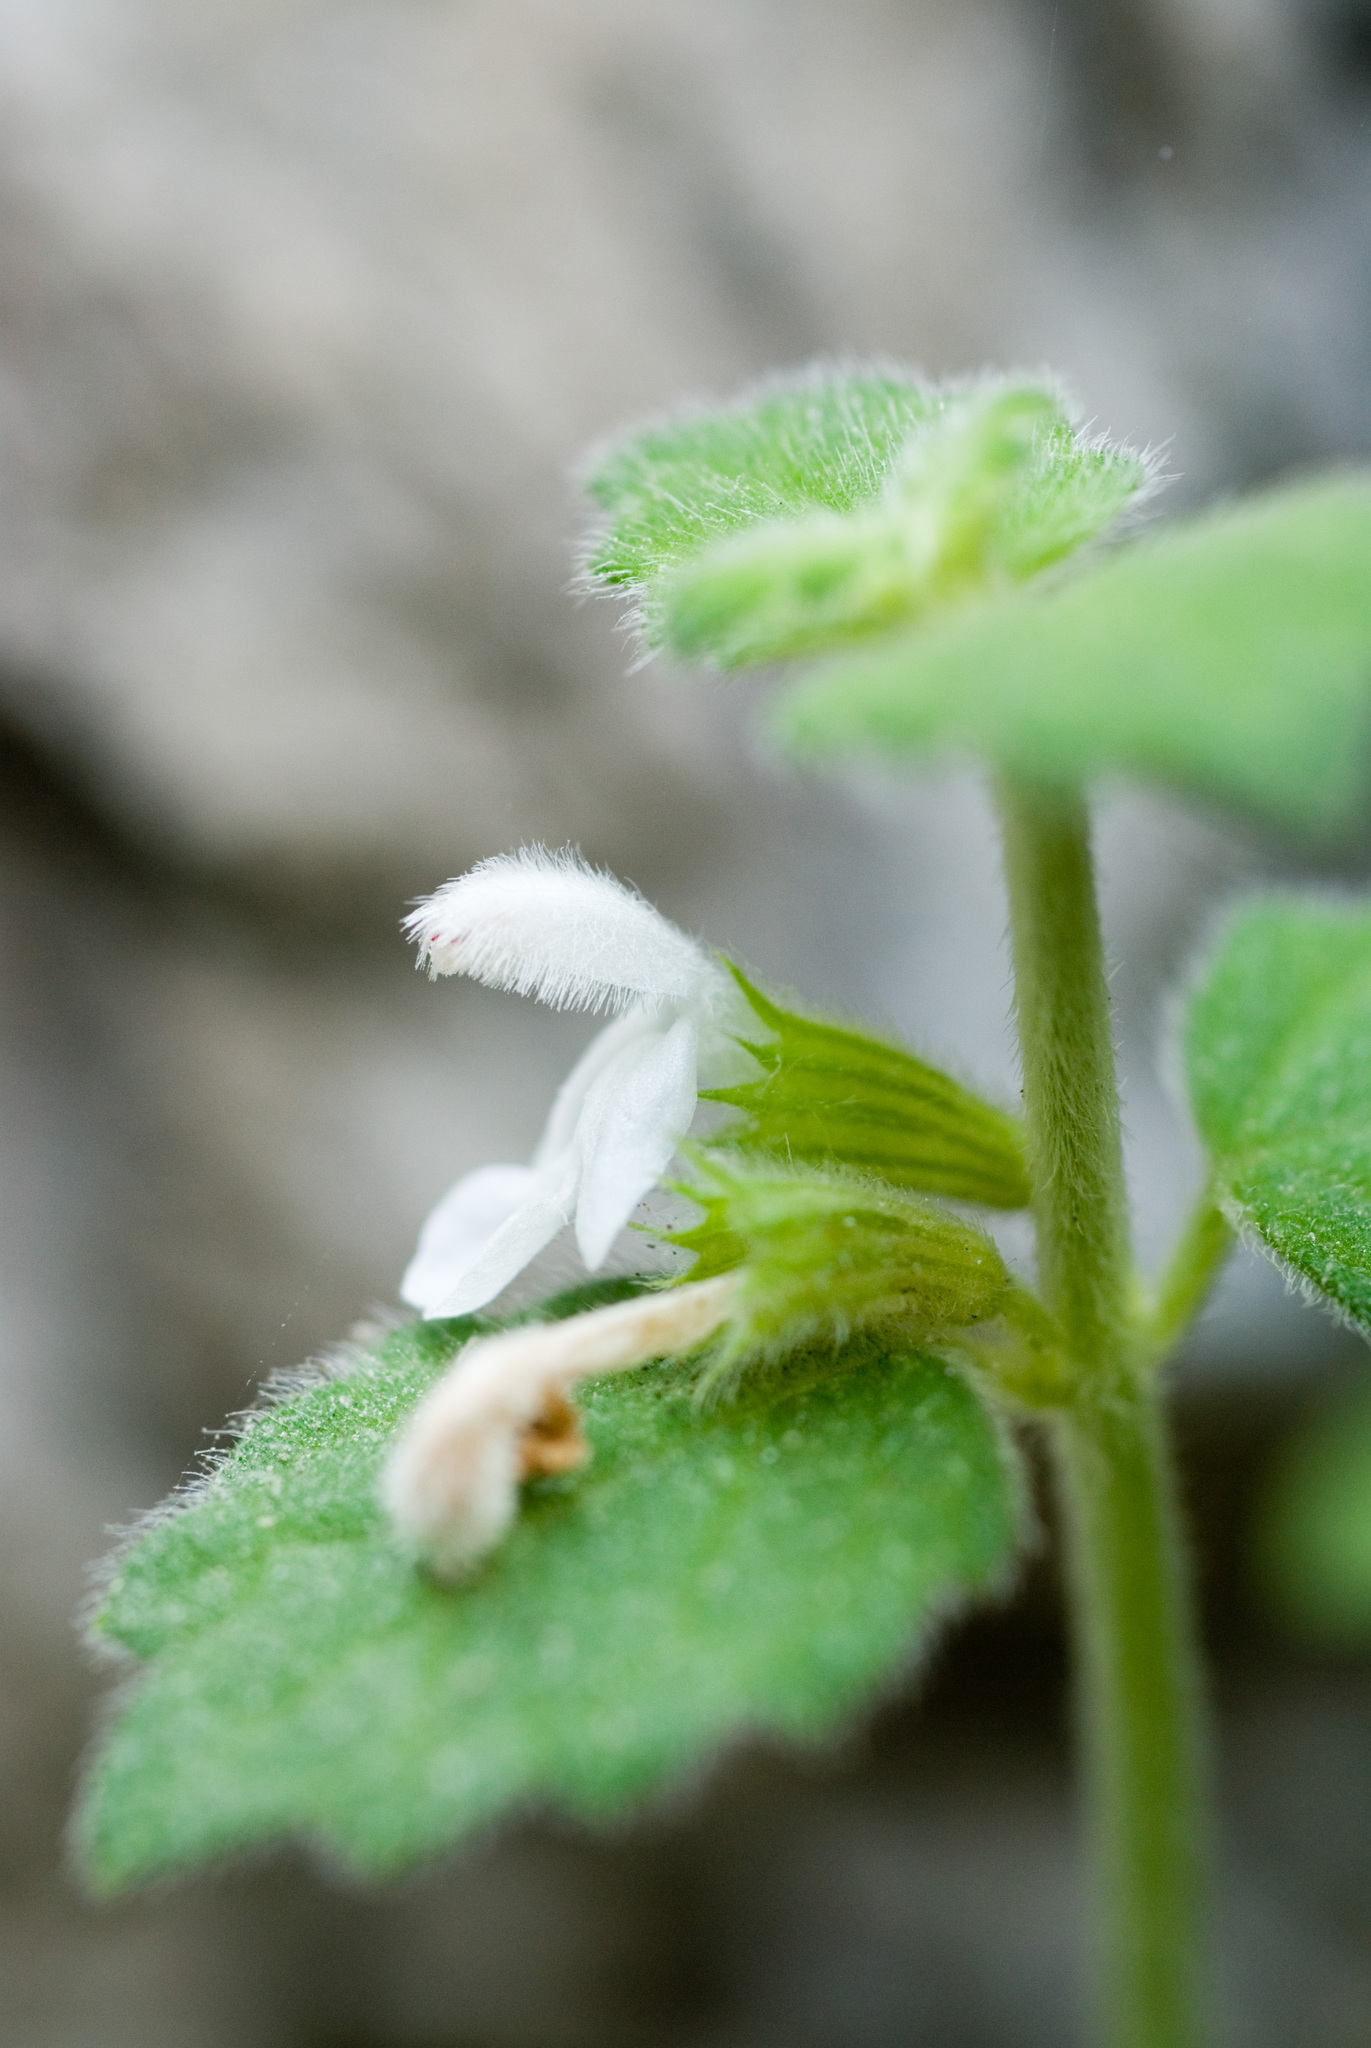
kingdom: Plantae
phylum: Tracheophyta
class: Magnoliopsida
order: Lamiales
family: Lamiaceae
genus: Leucas
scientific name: Leucas chinensis
